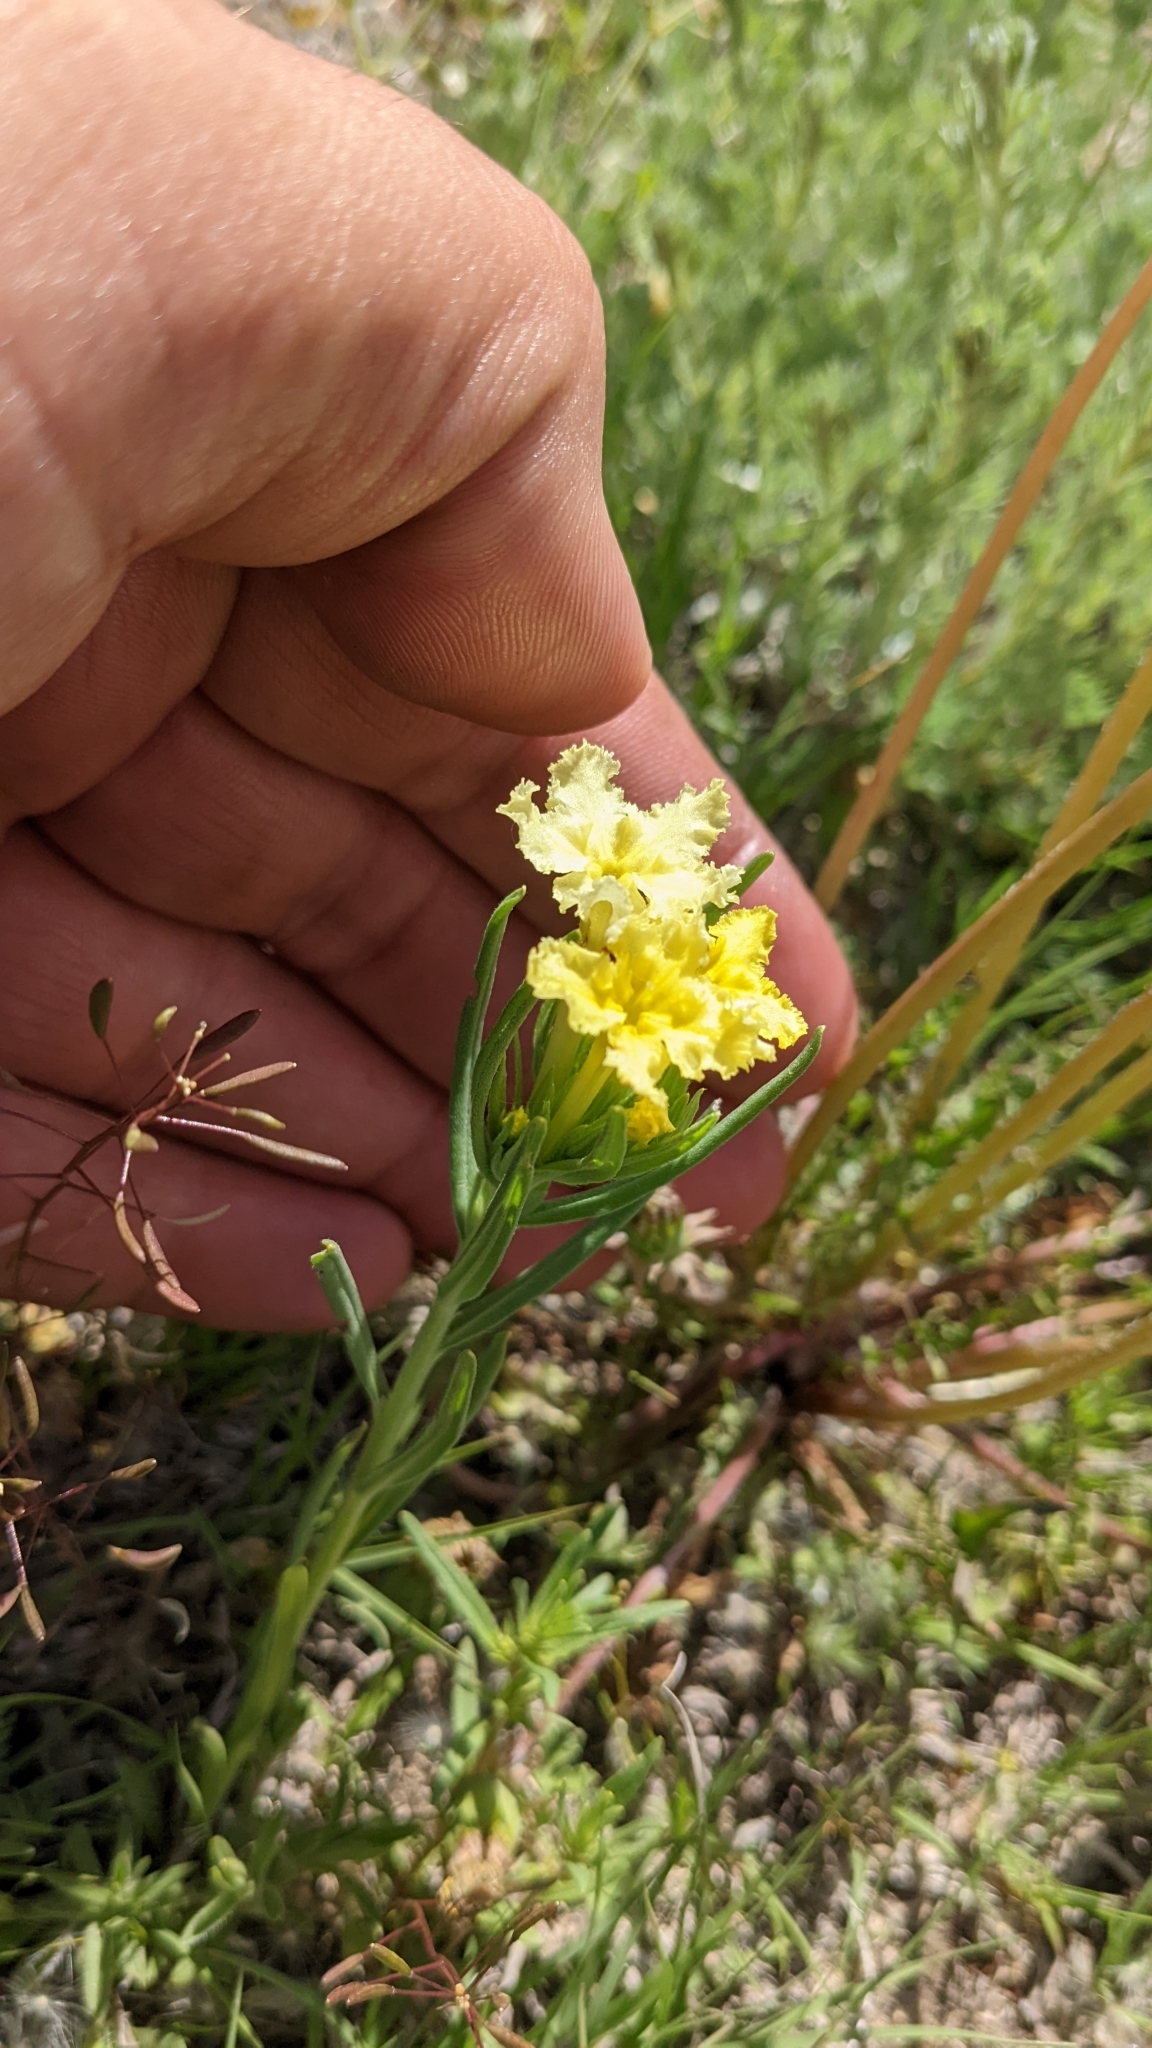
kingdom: Plantae
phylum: Tracheophyta
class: Magnoliopsida
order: Boraginales
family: Boraginaceae
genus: Lithospermum
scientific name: Lithospermum incisum
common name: Fringed gromwell
